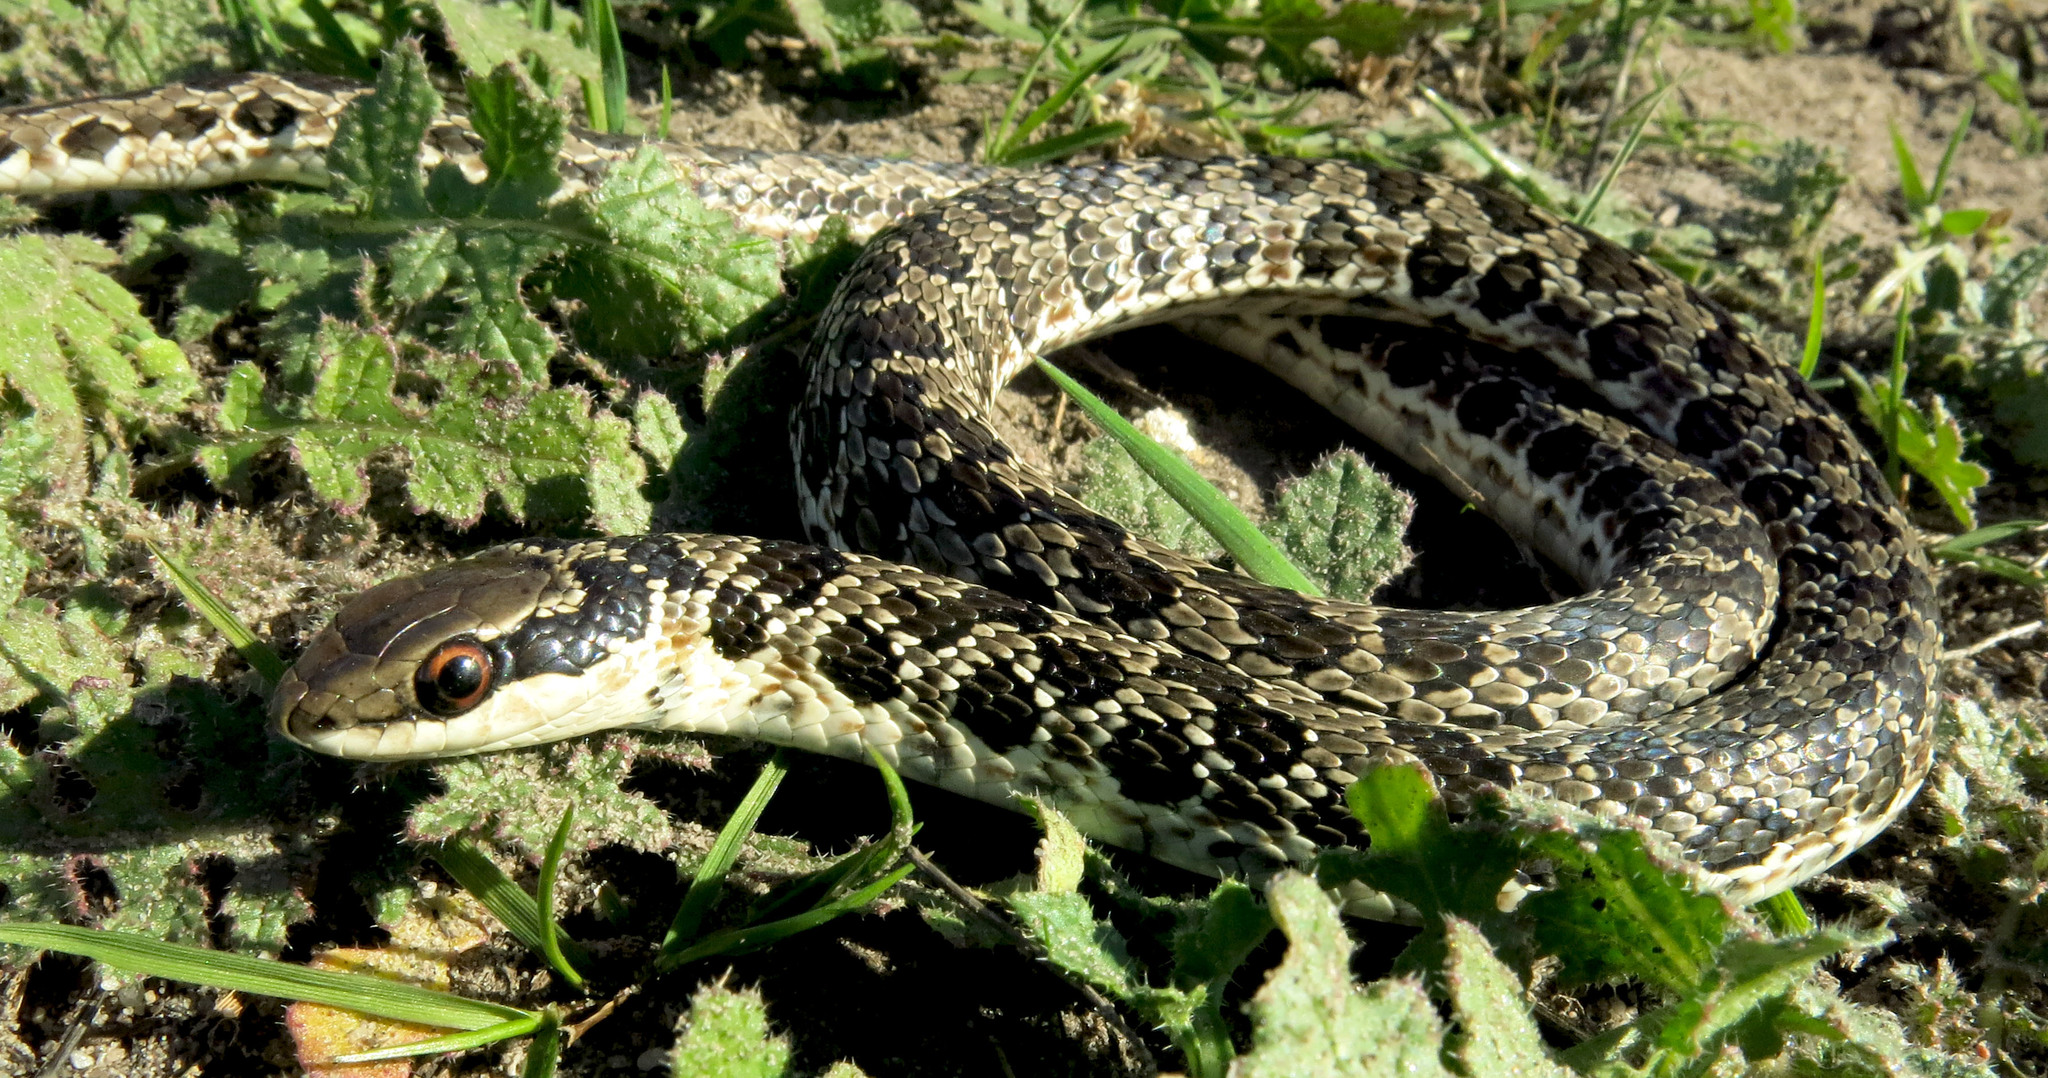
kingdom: Animalia
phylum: Chordata
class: Squamata
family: Psammophiidae
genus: Psammophylax
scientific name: Psammophylax rhombeatus
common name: Rhombic skaapsteker
